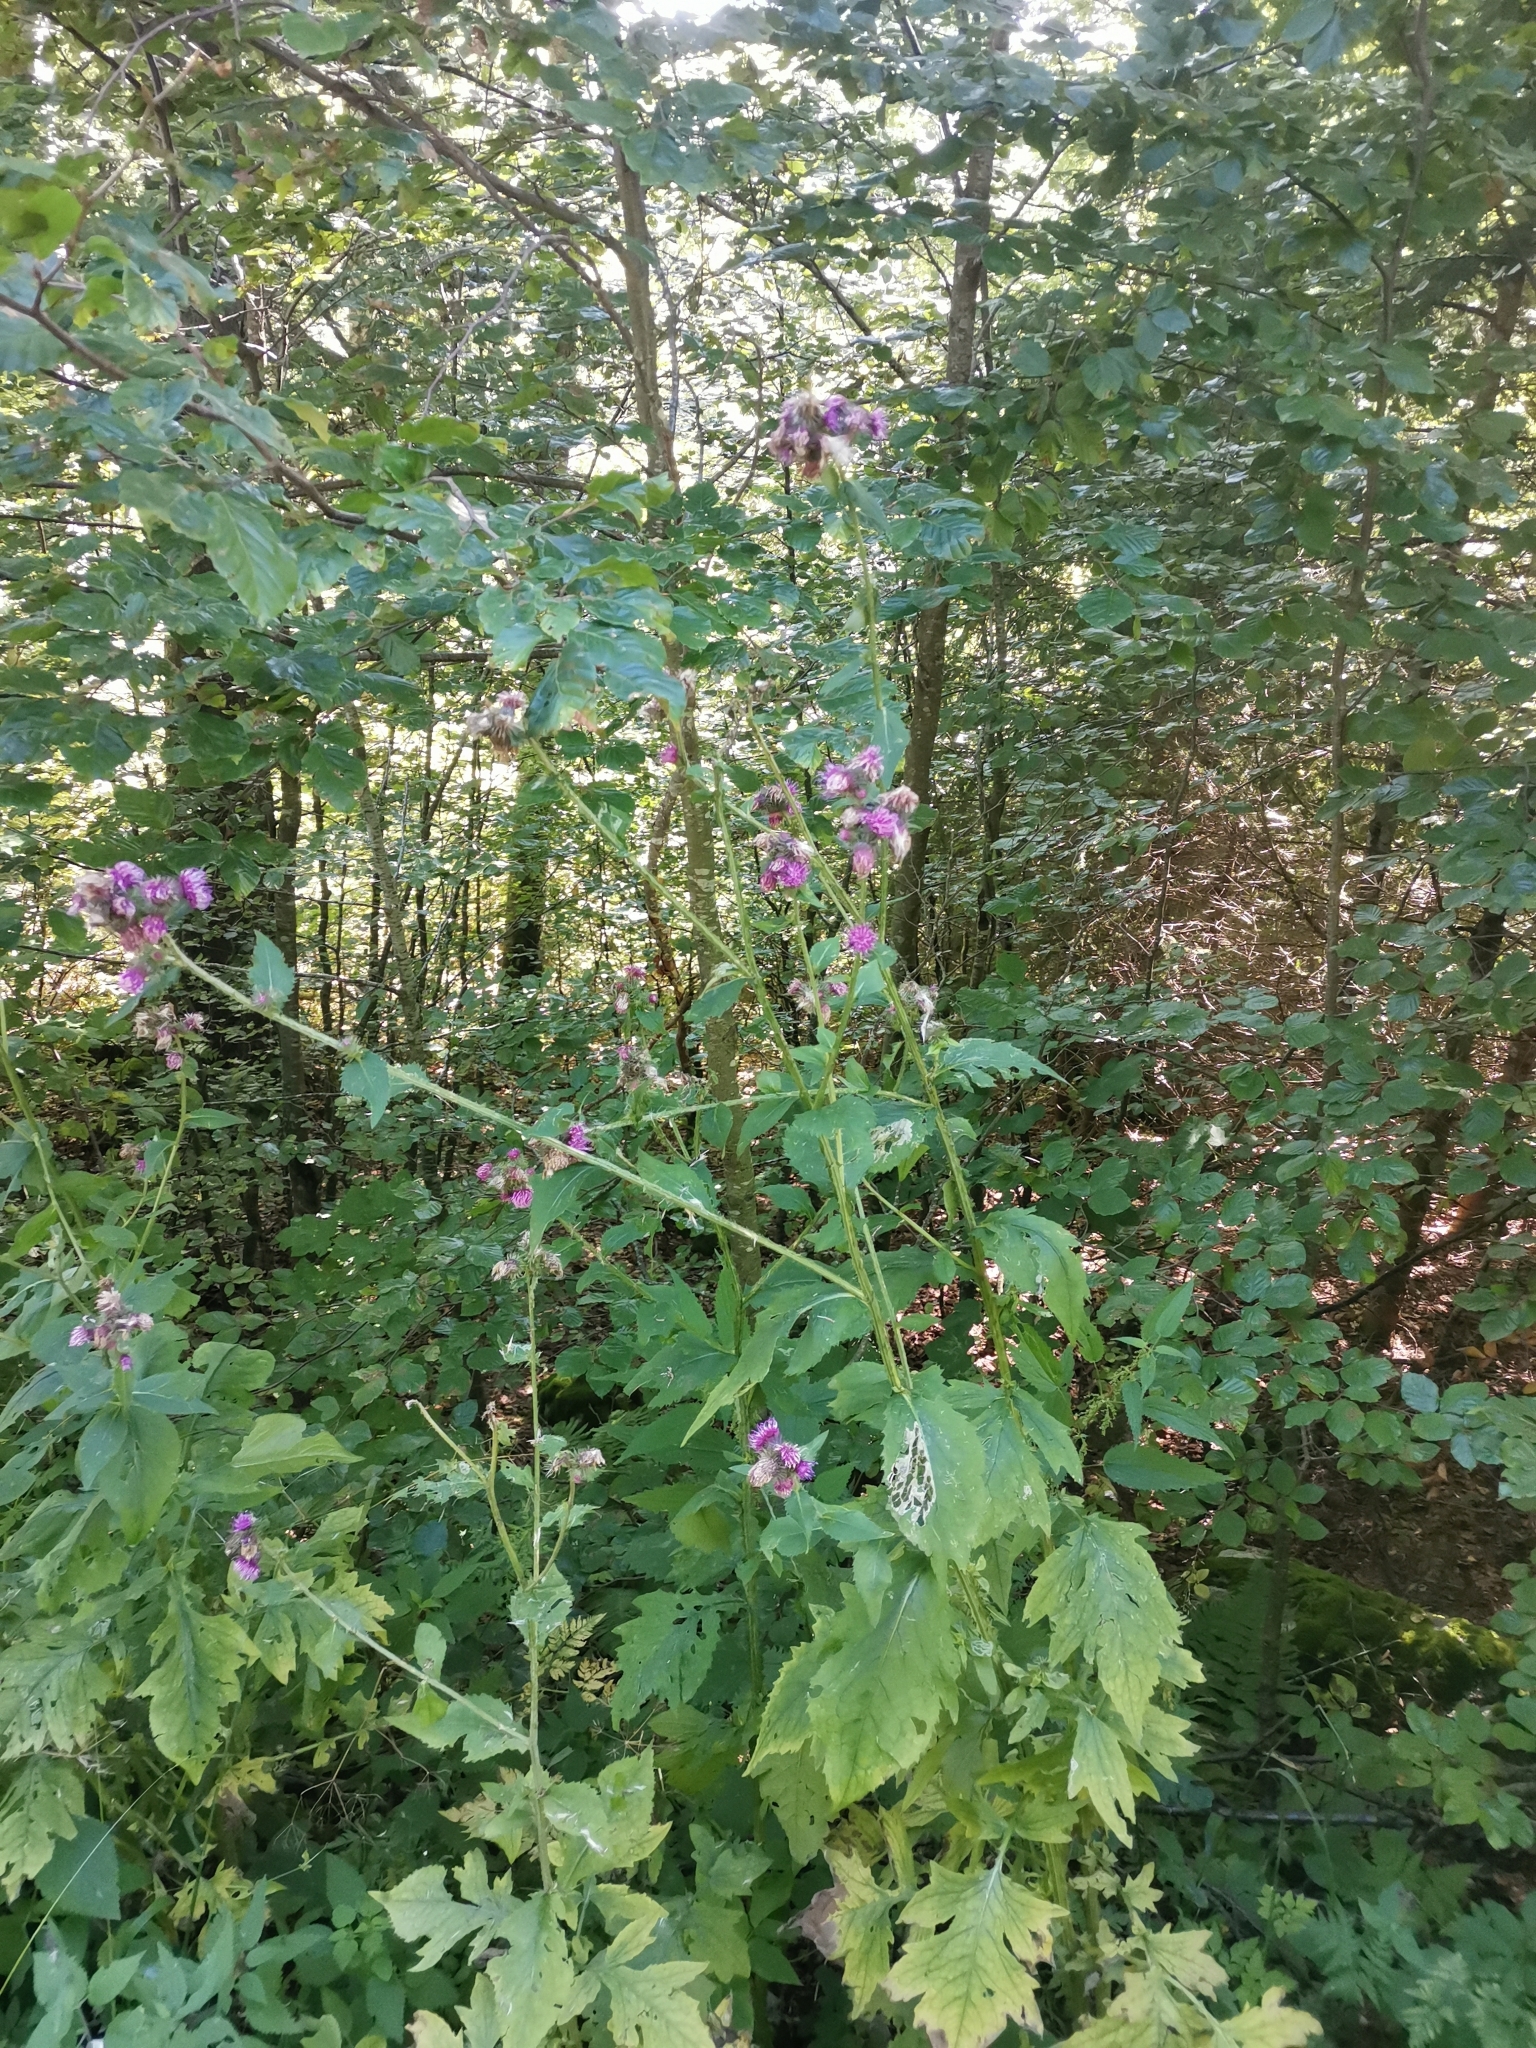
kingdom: Plantae
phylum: Tracheophyta
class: Magnoliopsida
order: Asterales
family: Asteraceae
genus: Carduus
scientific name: Carduus personata
